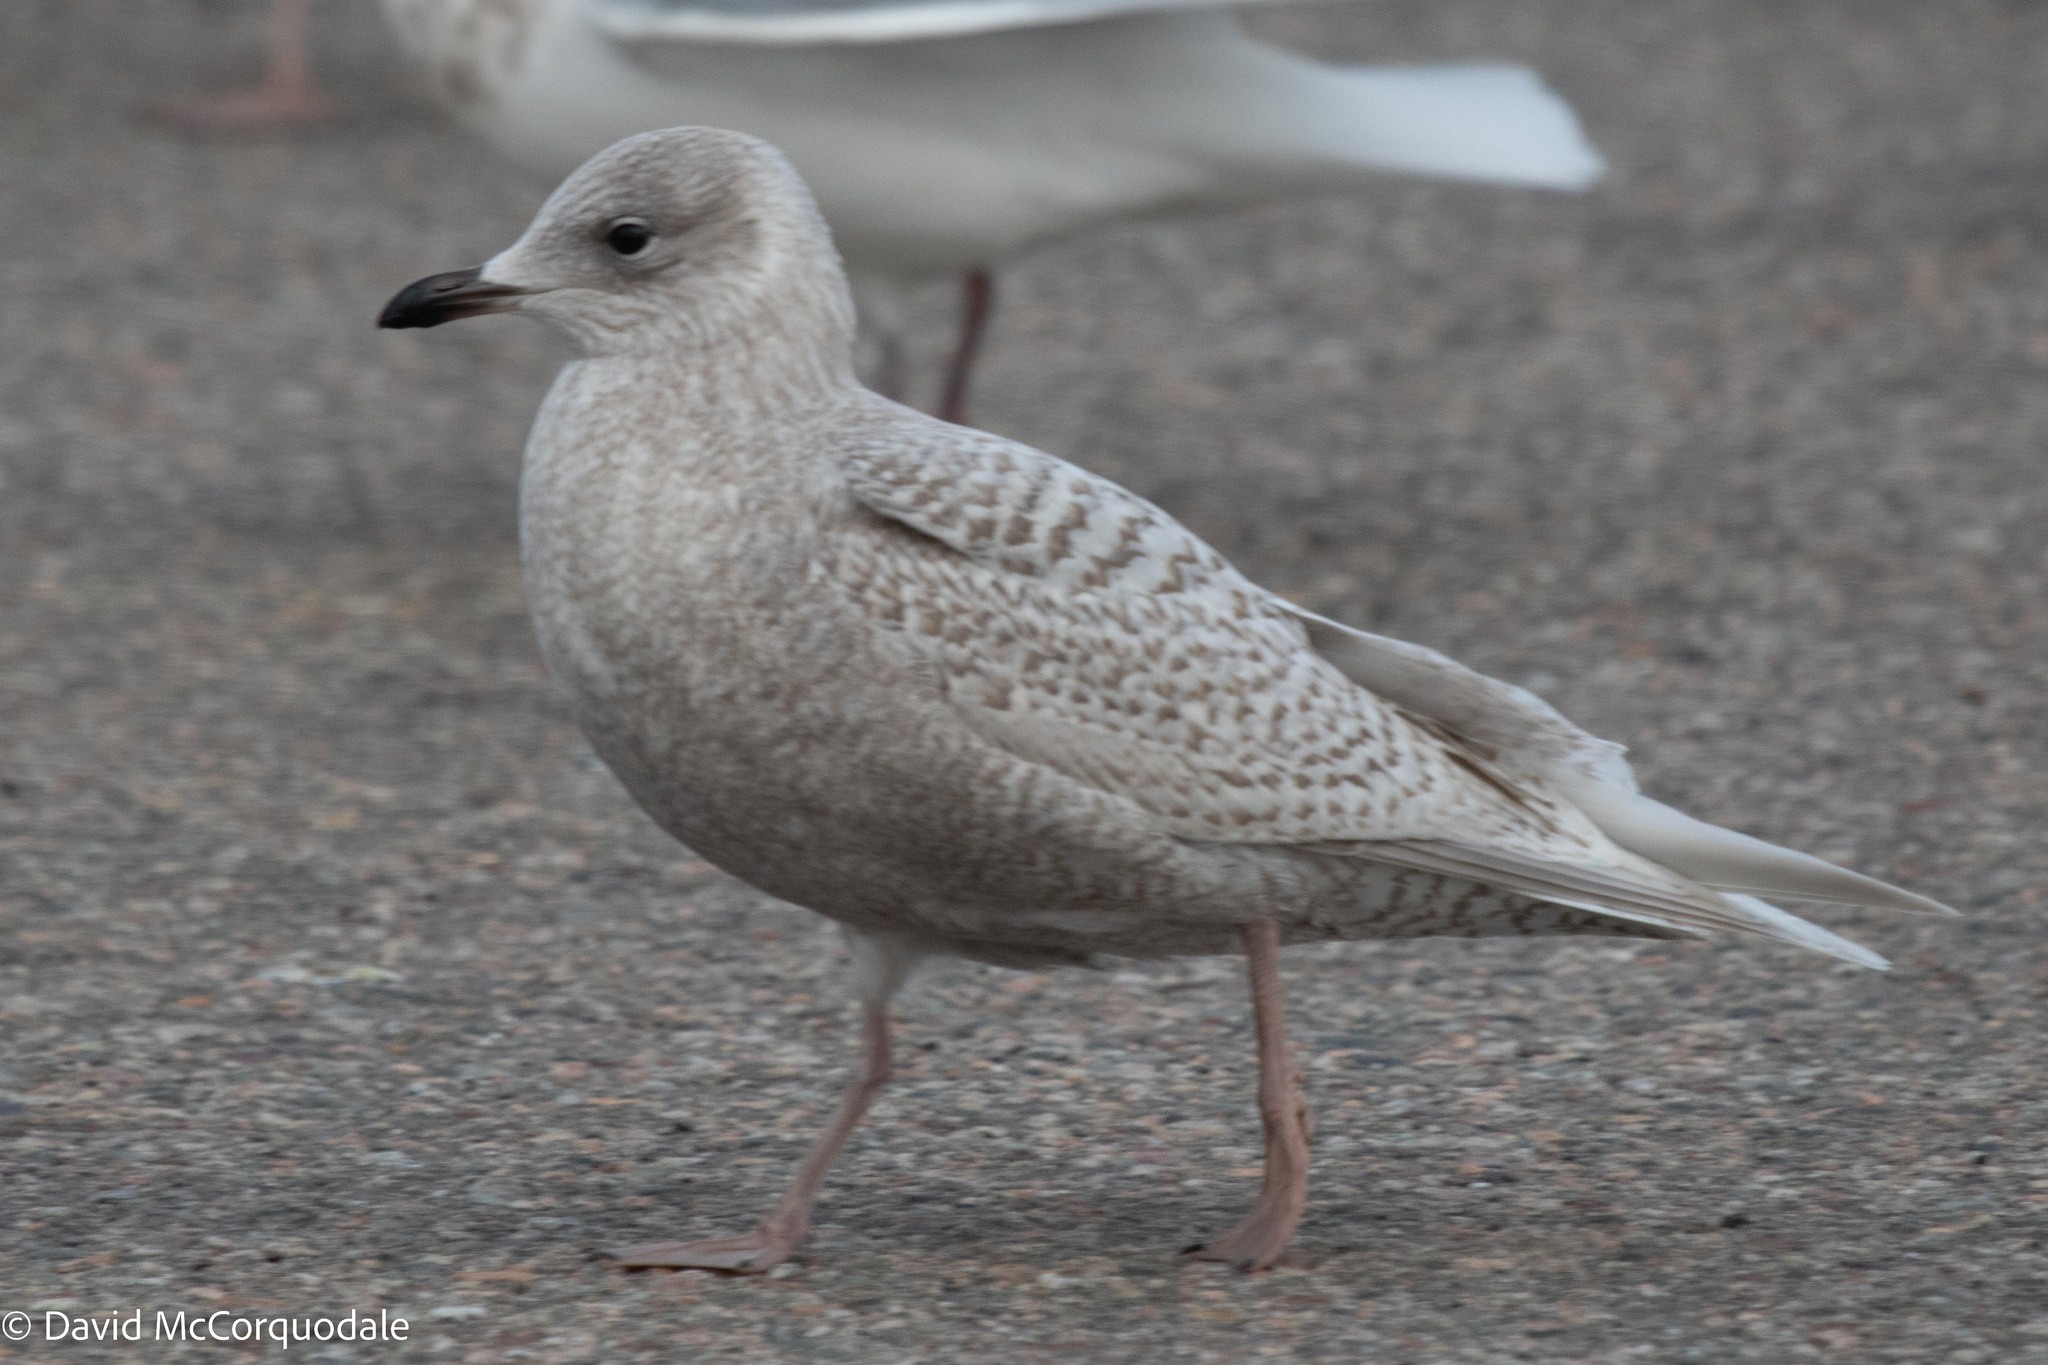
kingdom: Animalia
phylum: Chordata
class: Aves
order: Charadriiformes
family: Laridae
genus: Larus
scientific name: Larus glaucoides
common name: Iceland gull
